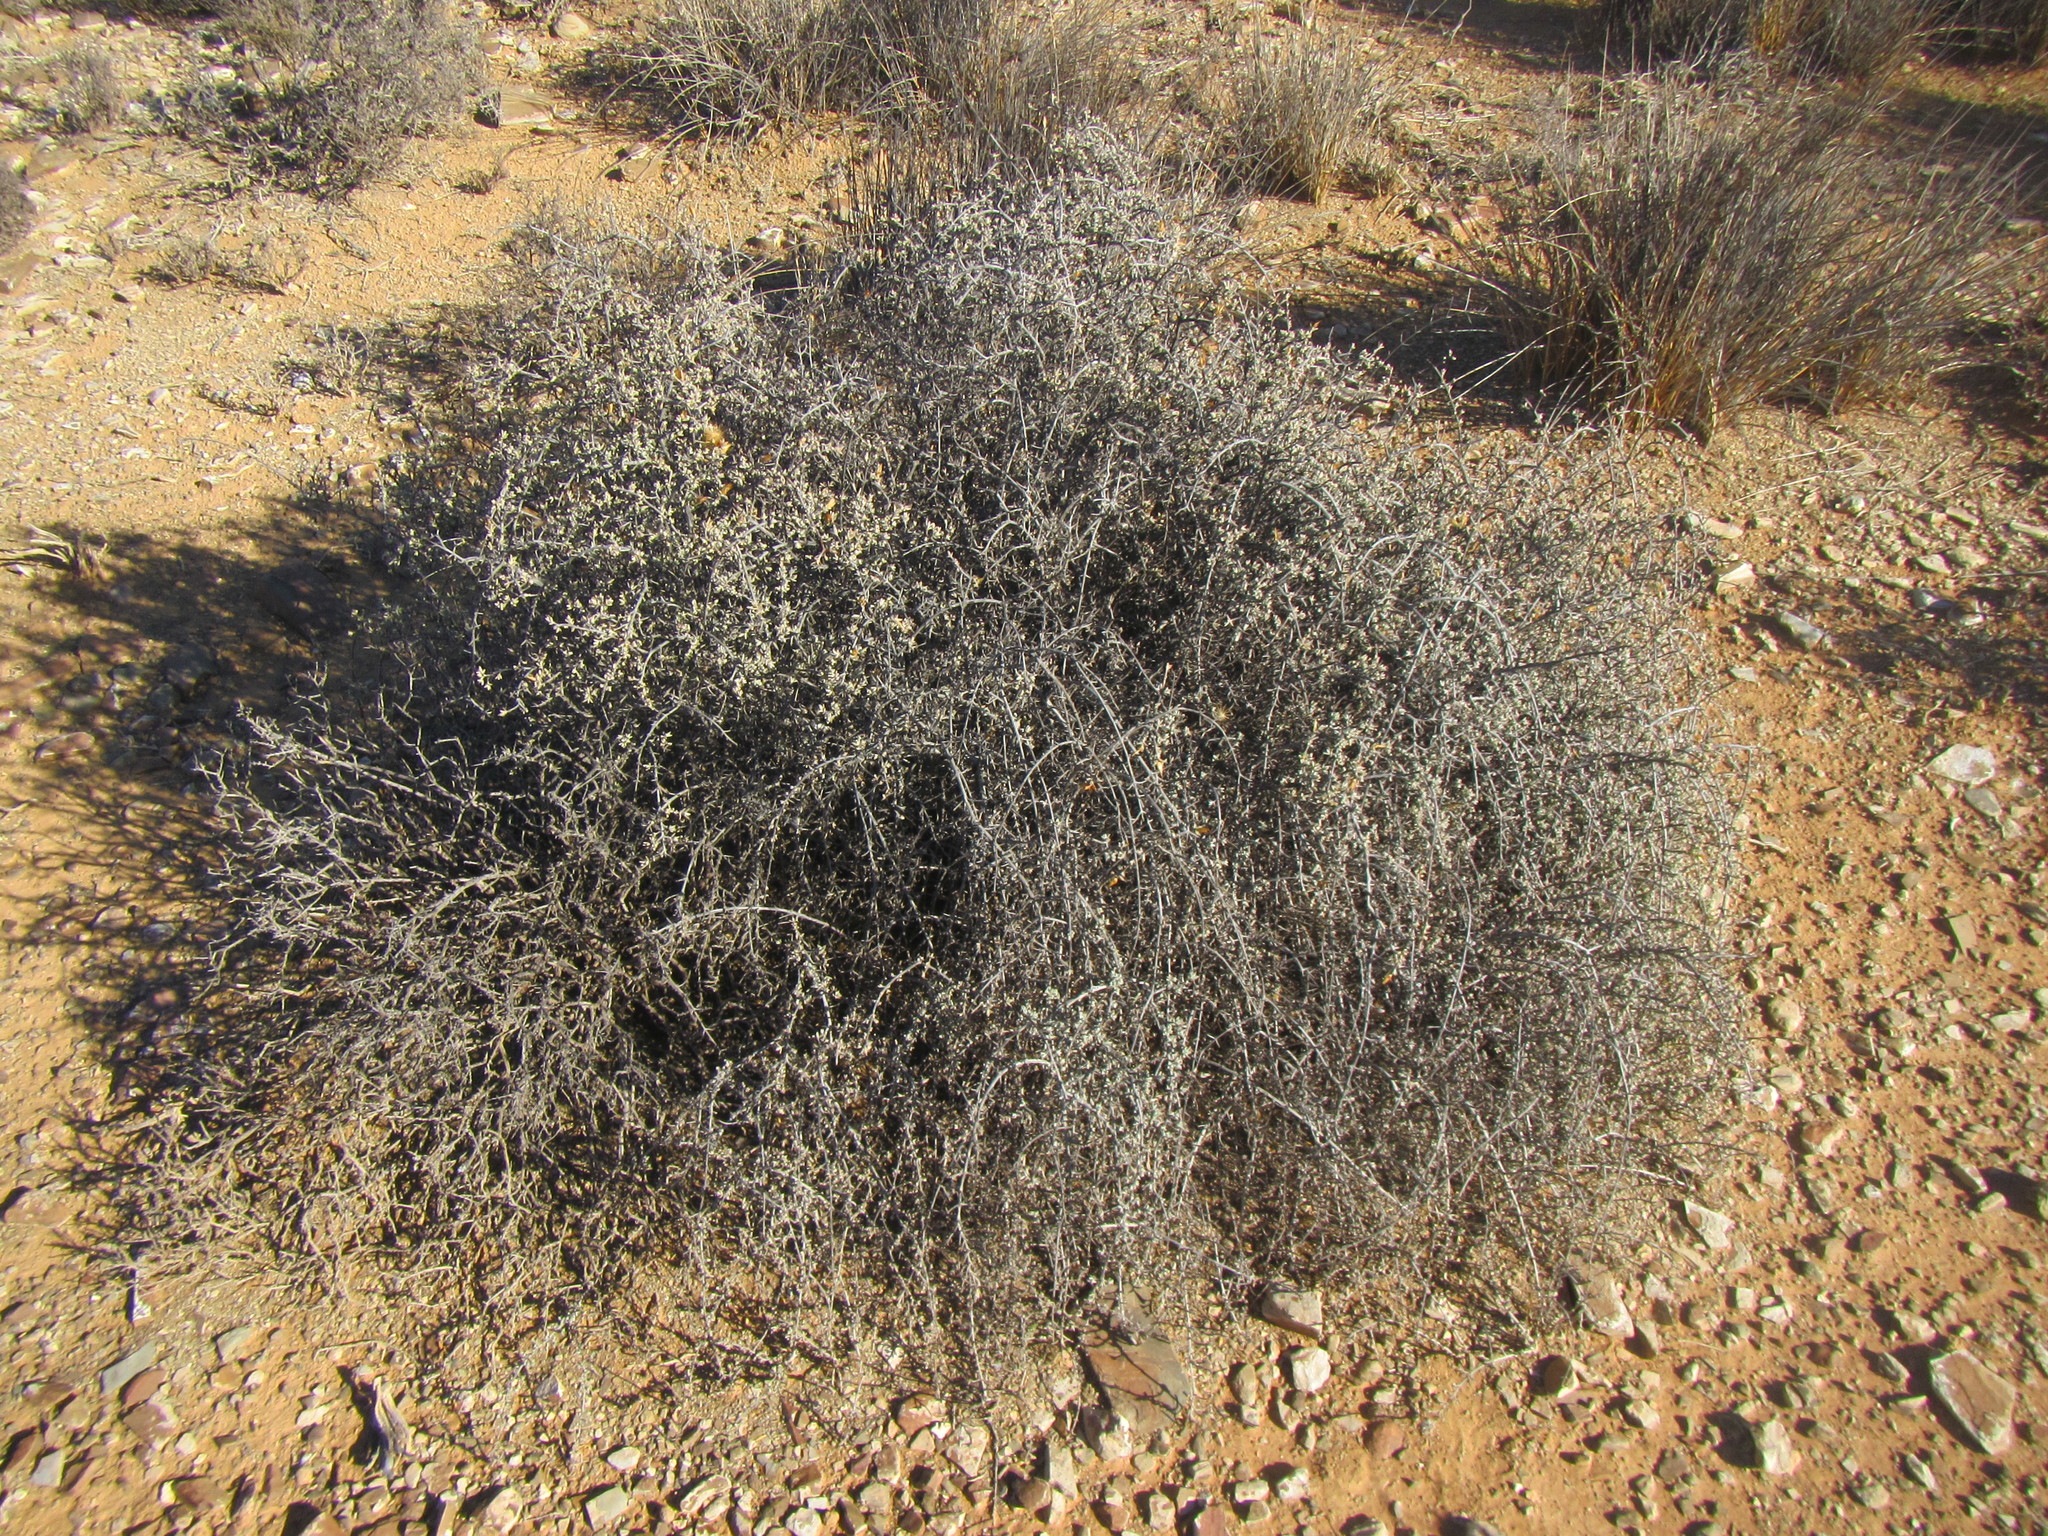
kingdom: Plantae
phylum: Tracheophyta
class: Magnoliopsida
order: Asterales
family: Asteraceae
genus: Pteronia
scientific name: Pteronia glauca
